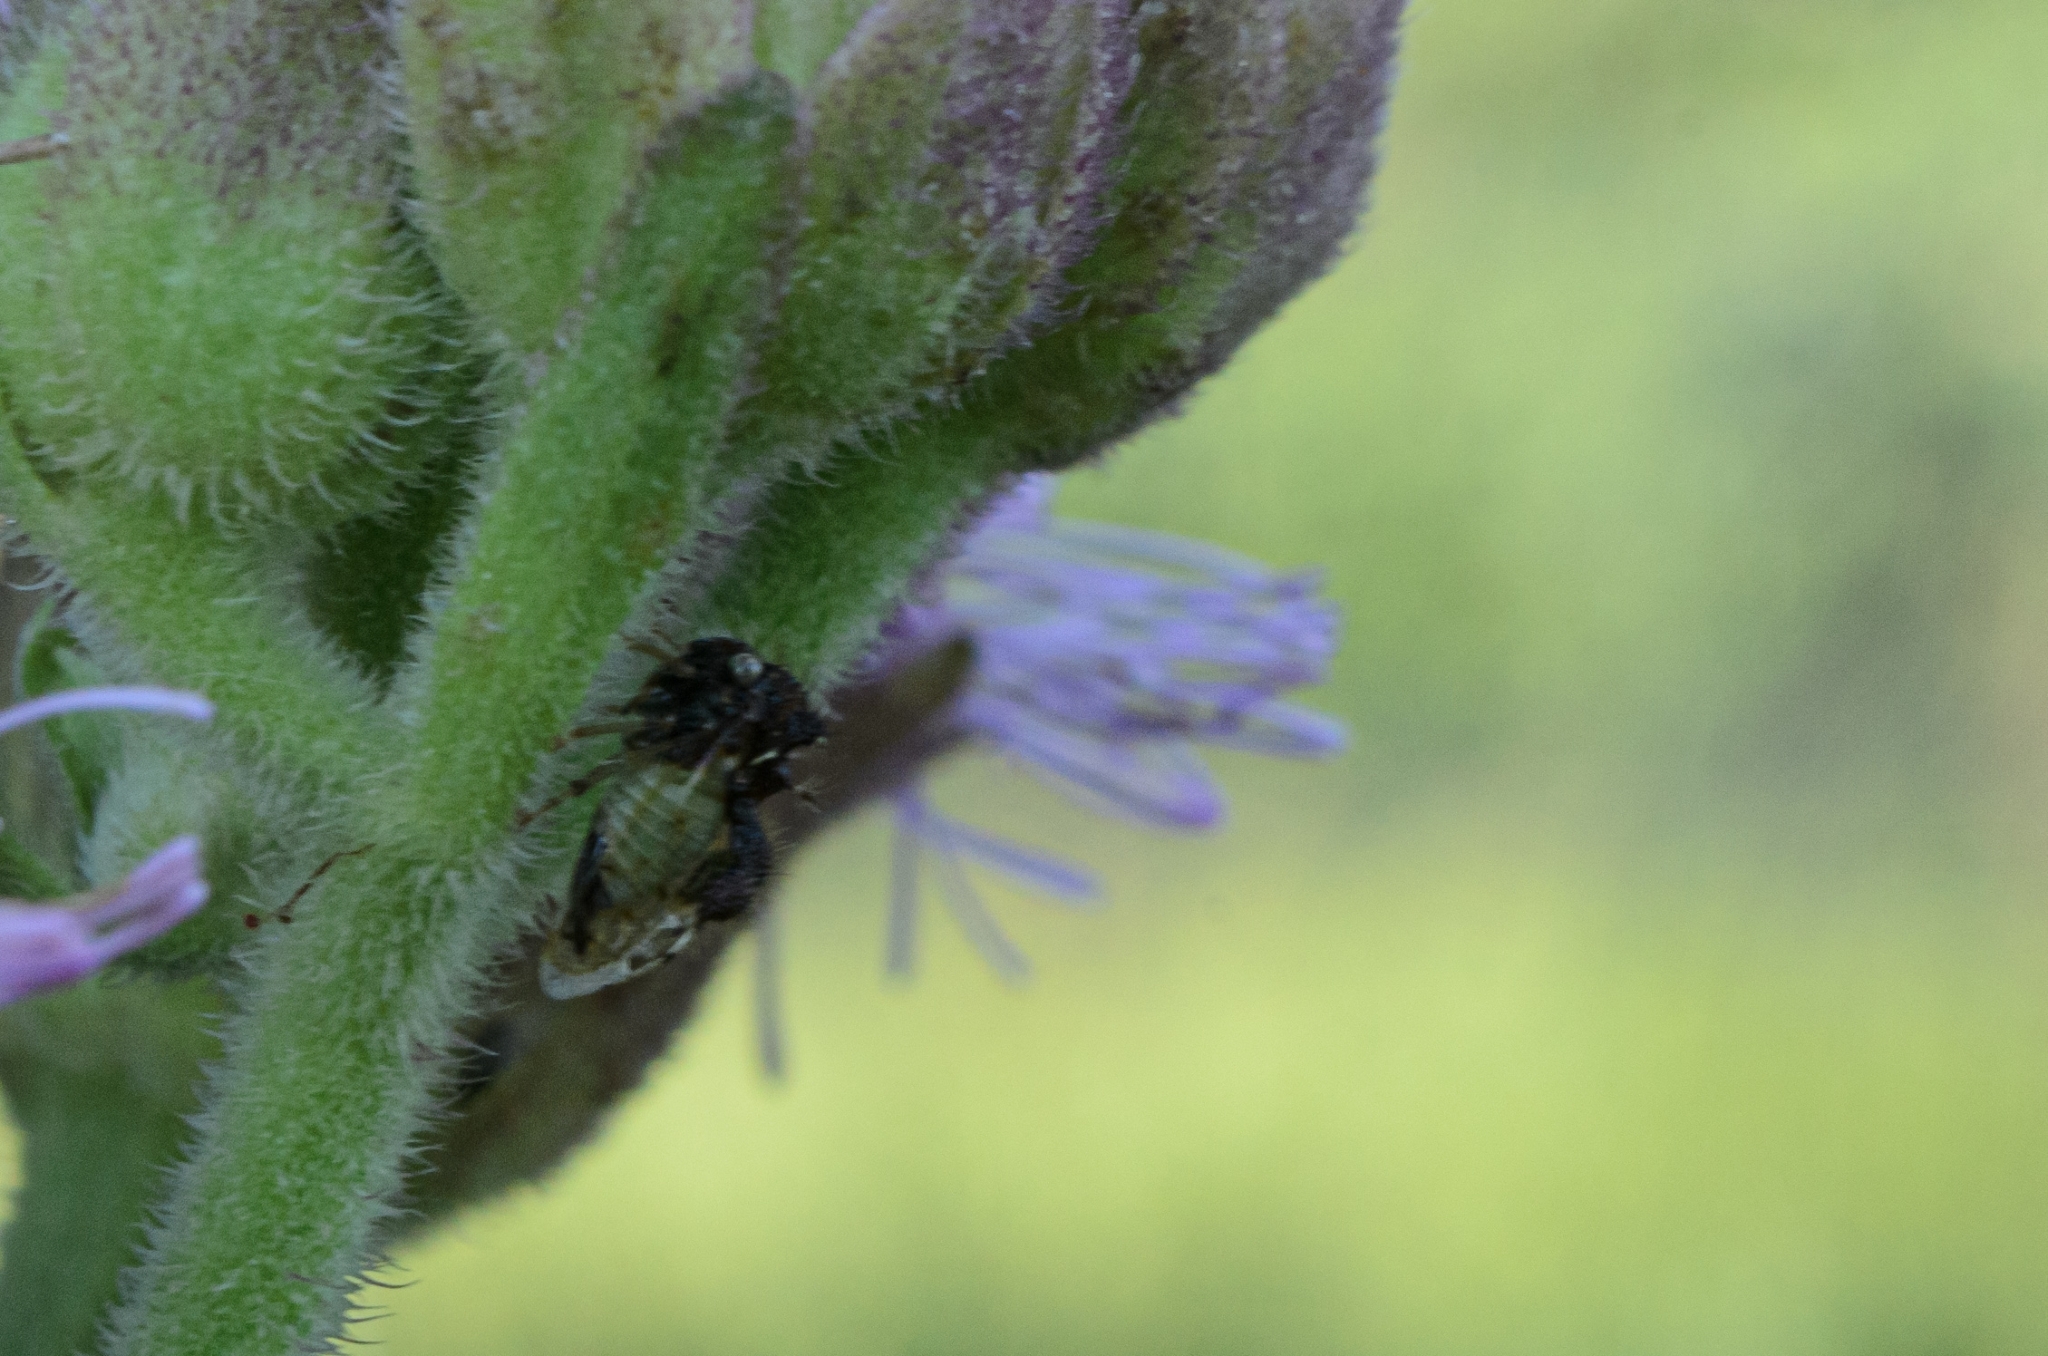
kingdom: Animalia
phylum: Arthropoda
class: Insecta
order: Hemiptera
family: Membracidae
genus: Cyphonia
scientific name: Cyphonia claviger
